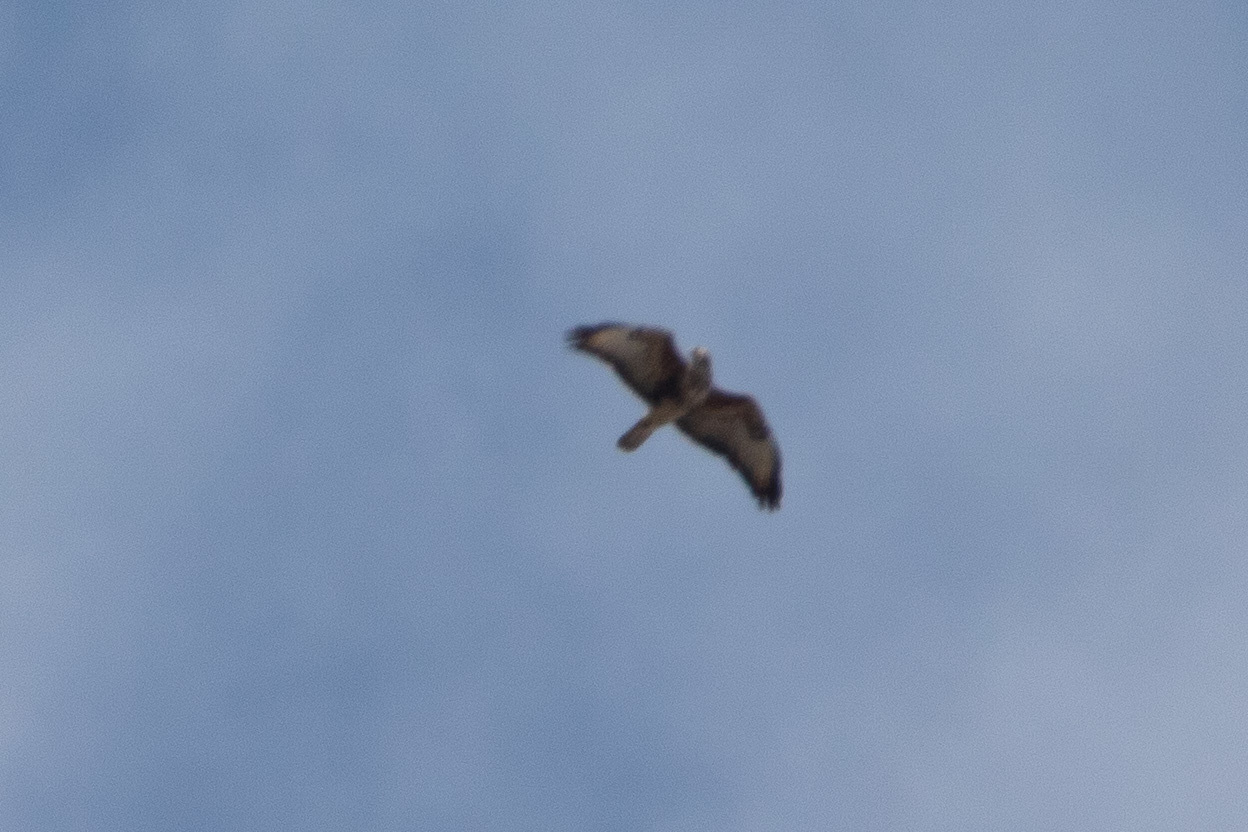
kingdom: Animalia
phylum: Chordata
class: Aves
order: Accipitriformes
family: Accipitridae
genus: Buteo
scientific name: Buteo buteo
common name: Common buzzard
